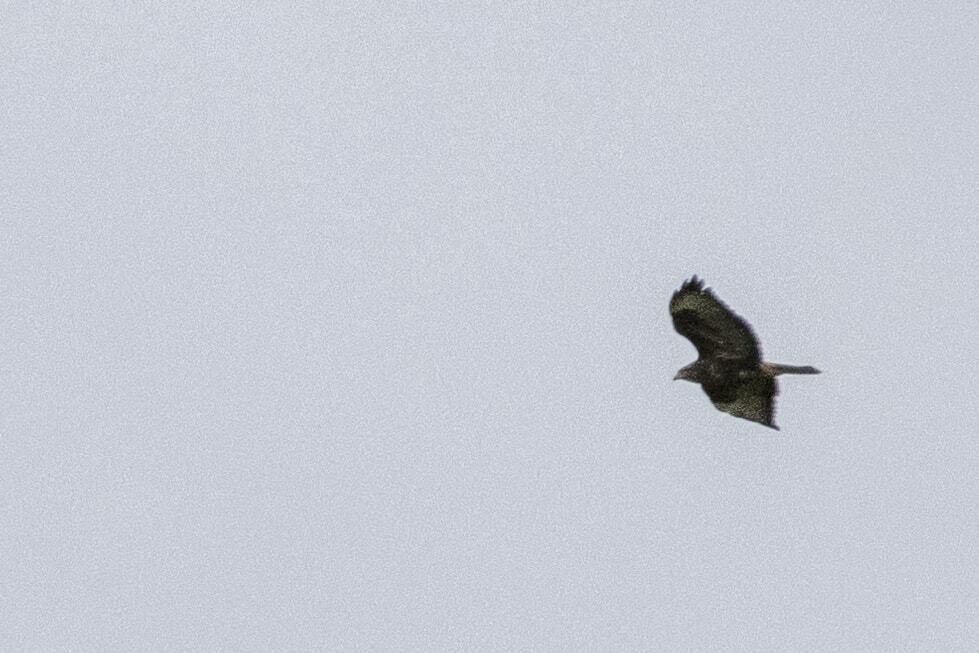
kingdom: Animalia
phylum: Chordata
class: Aves
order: Accipitriformes
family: Accipitridae
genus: Buteo
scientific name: Buteo buteo
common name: Common buzzard
